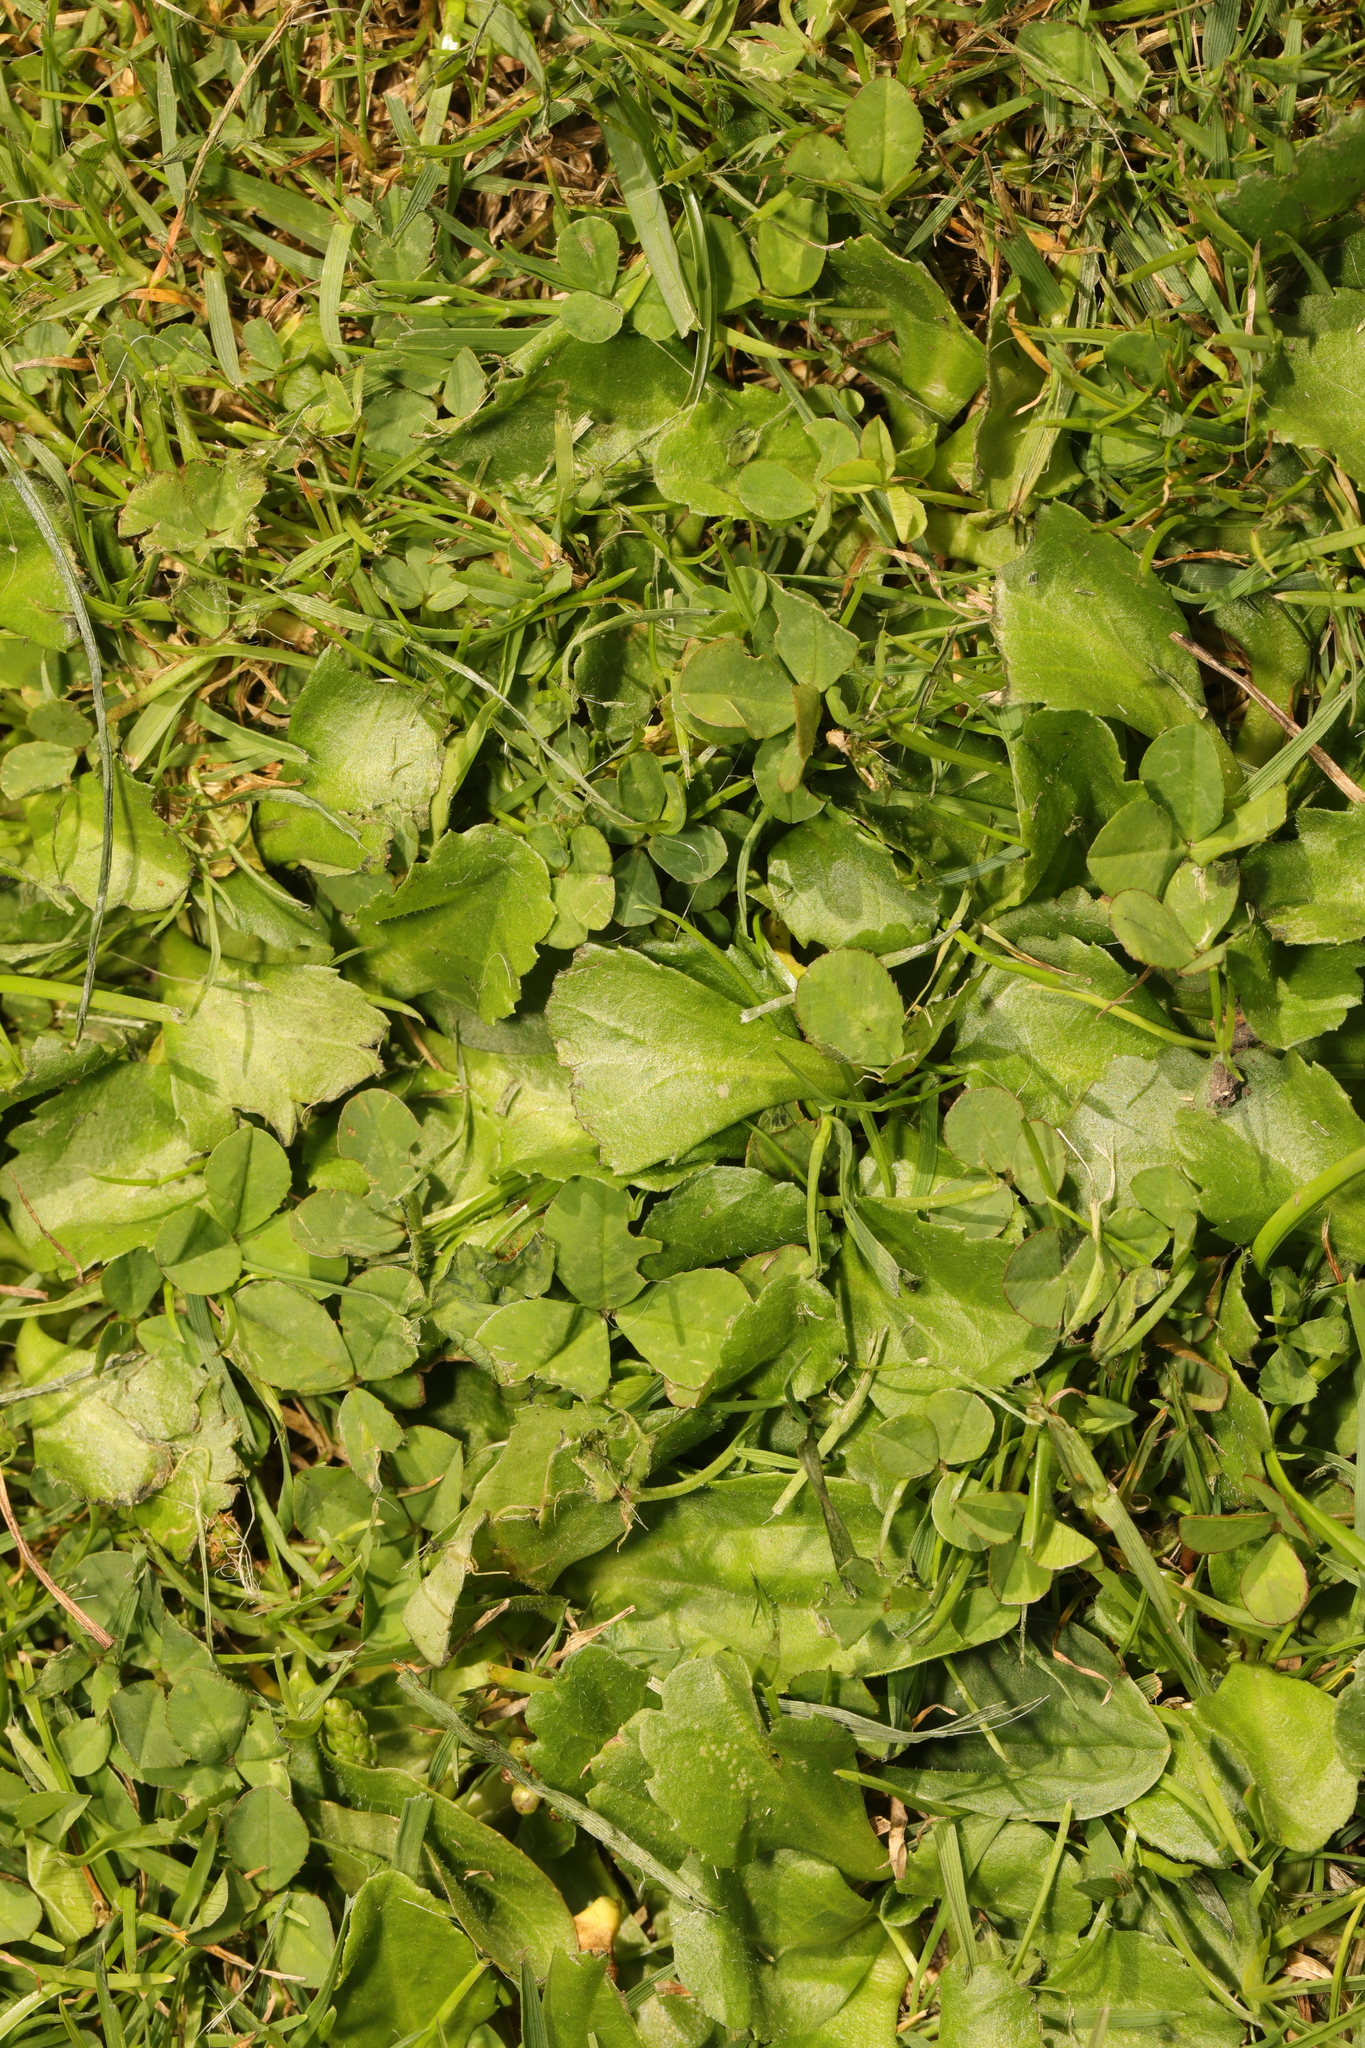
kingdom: Plantae
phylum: Tracheophyta
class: Magnoliopsida
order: Asterales
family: Asteraceae
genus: Bellis
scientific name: Bellis perennis
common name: Lawndaisy
